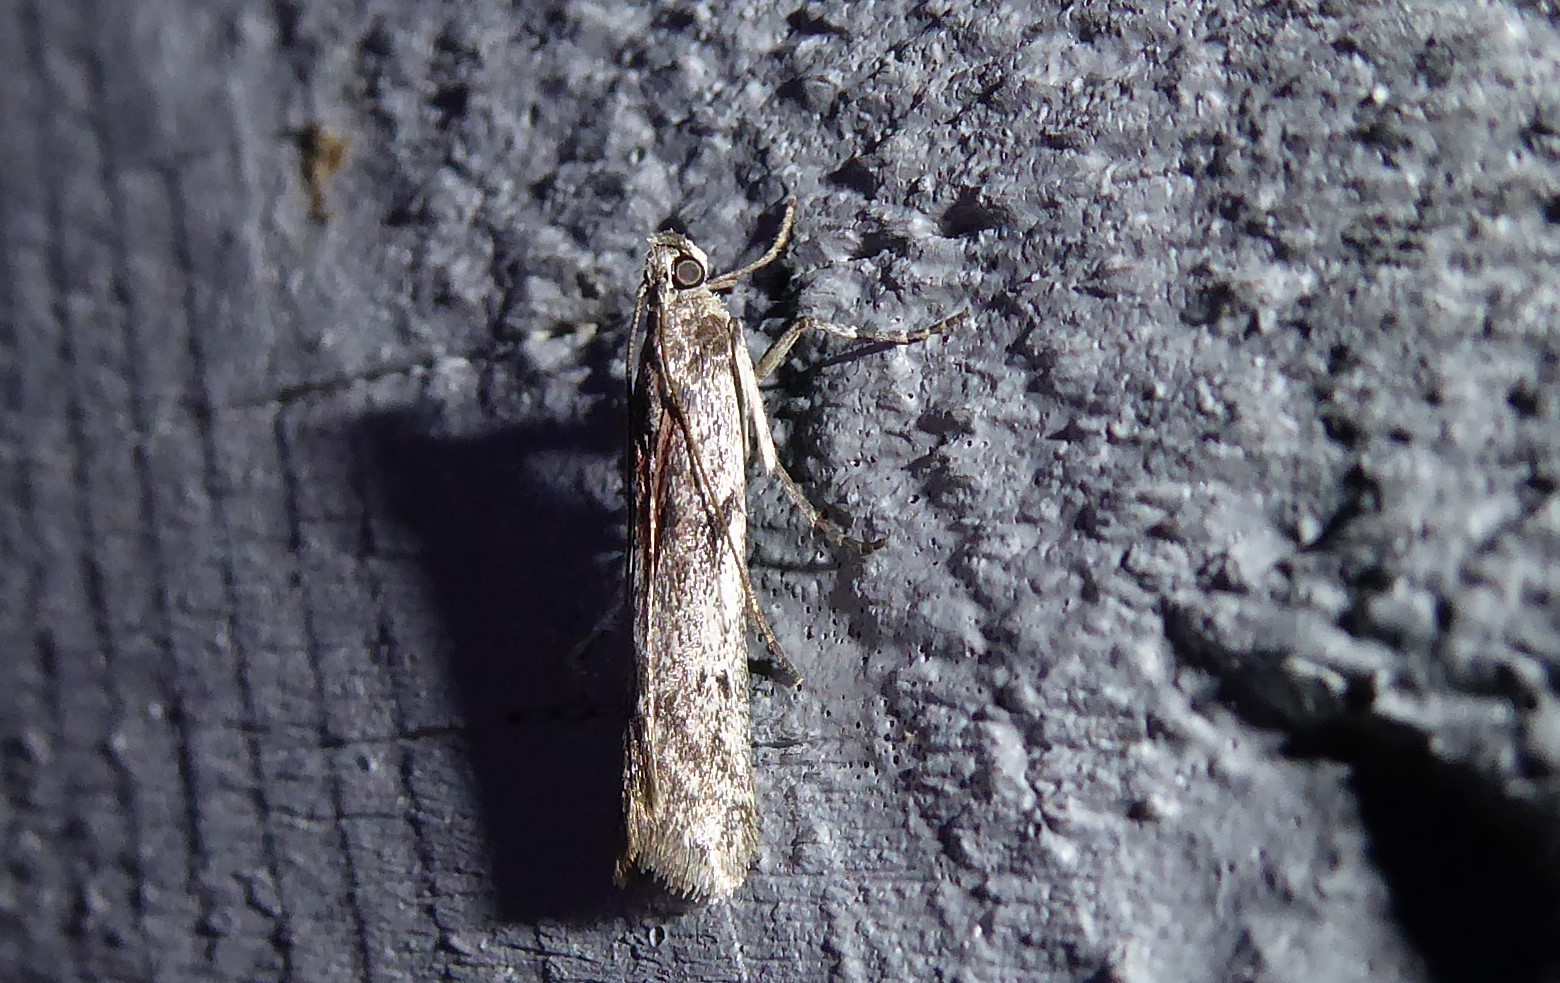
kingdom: Animalia
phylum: Arthropoda
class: Insecta
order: Lepidoptera
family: Pyralidae
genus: Patagoniodes
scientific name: Patagoniodes farinaria
